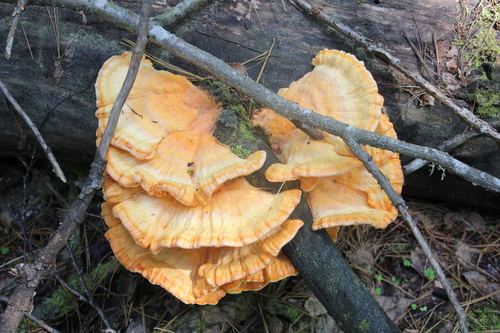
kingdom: Fungi
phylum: Basidiomycota
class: Agaricomycetes
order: Polyporales
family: Laetiporaceae
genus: Laetiporus
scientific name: Laetiporus sulphureus
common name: Chicken of the woods
